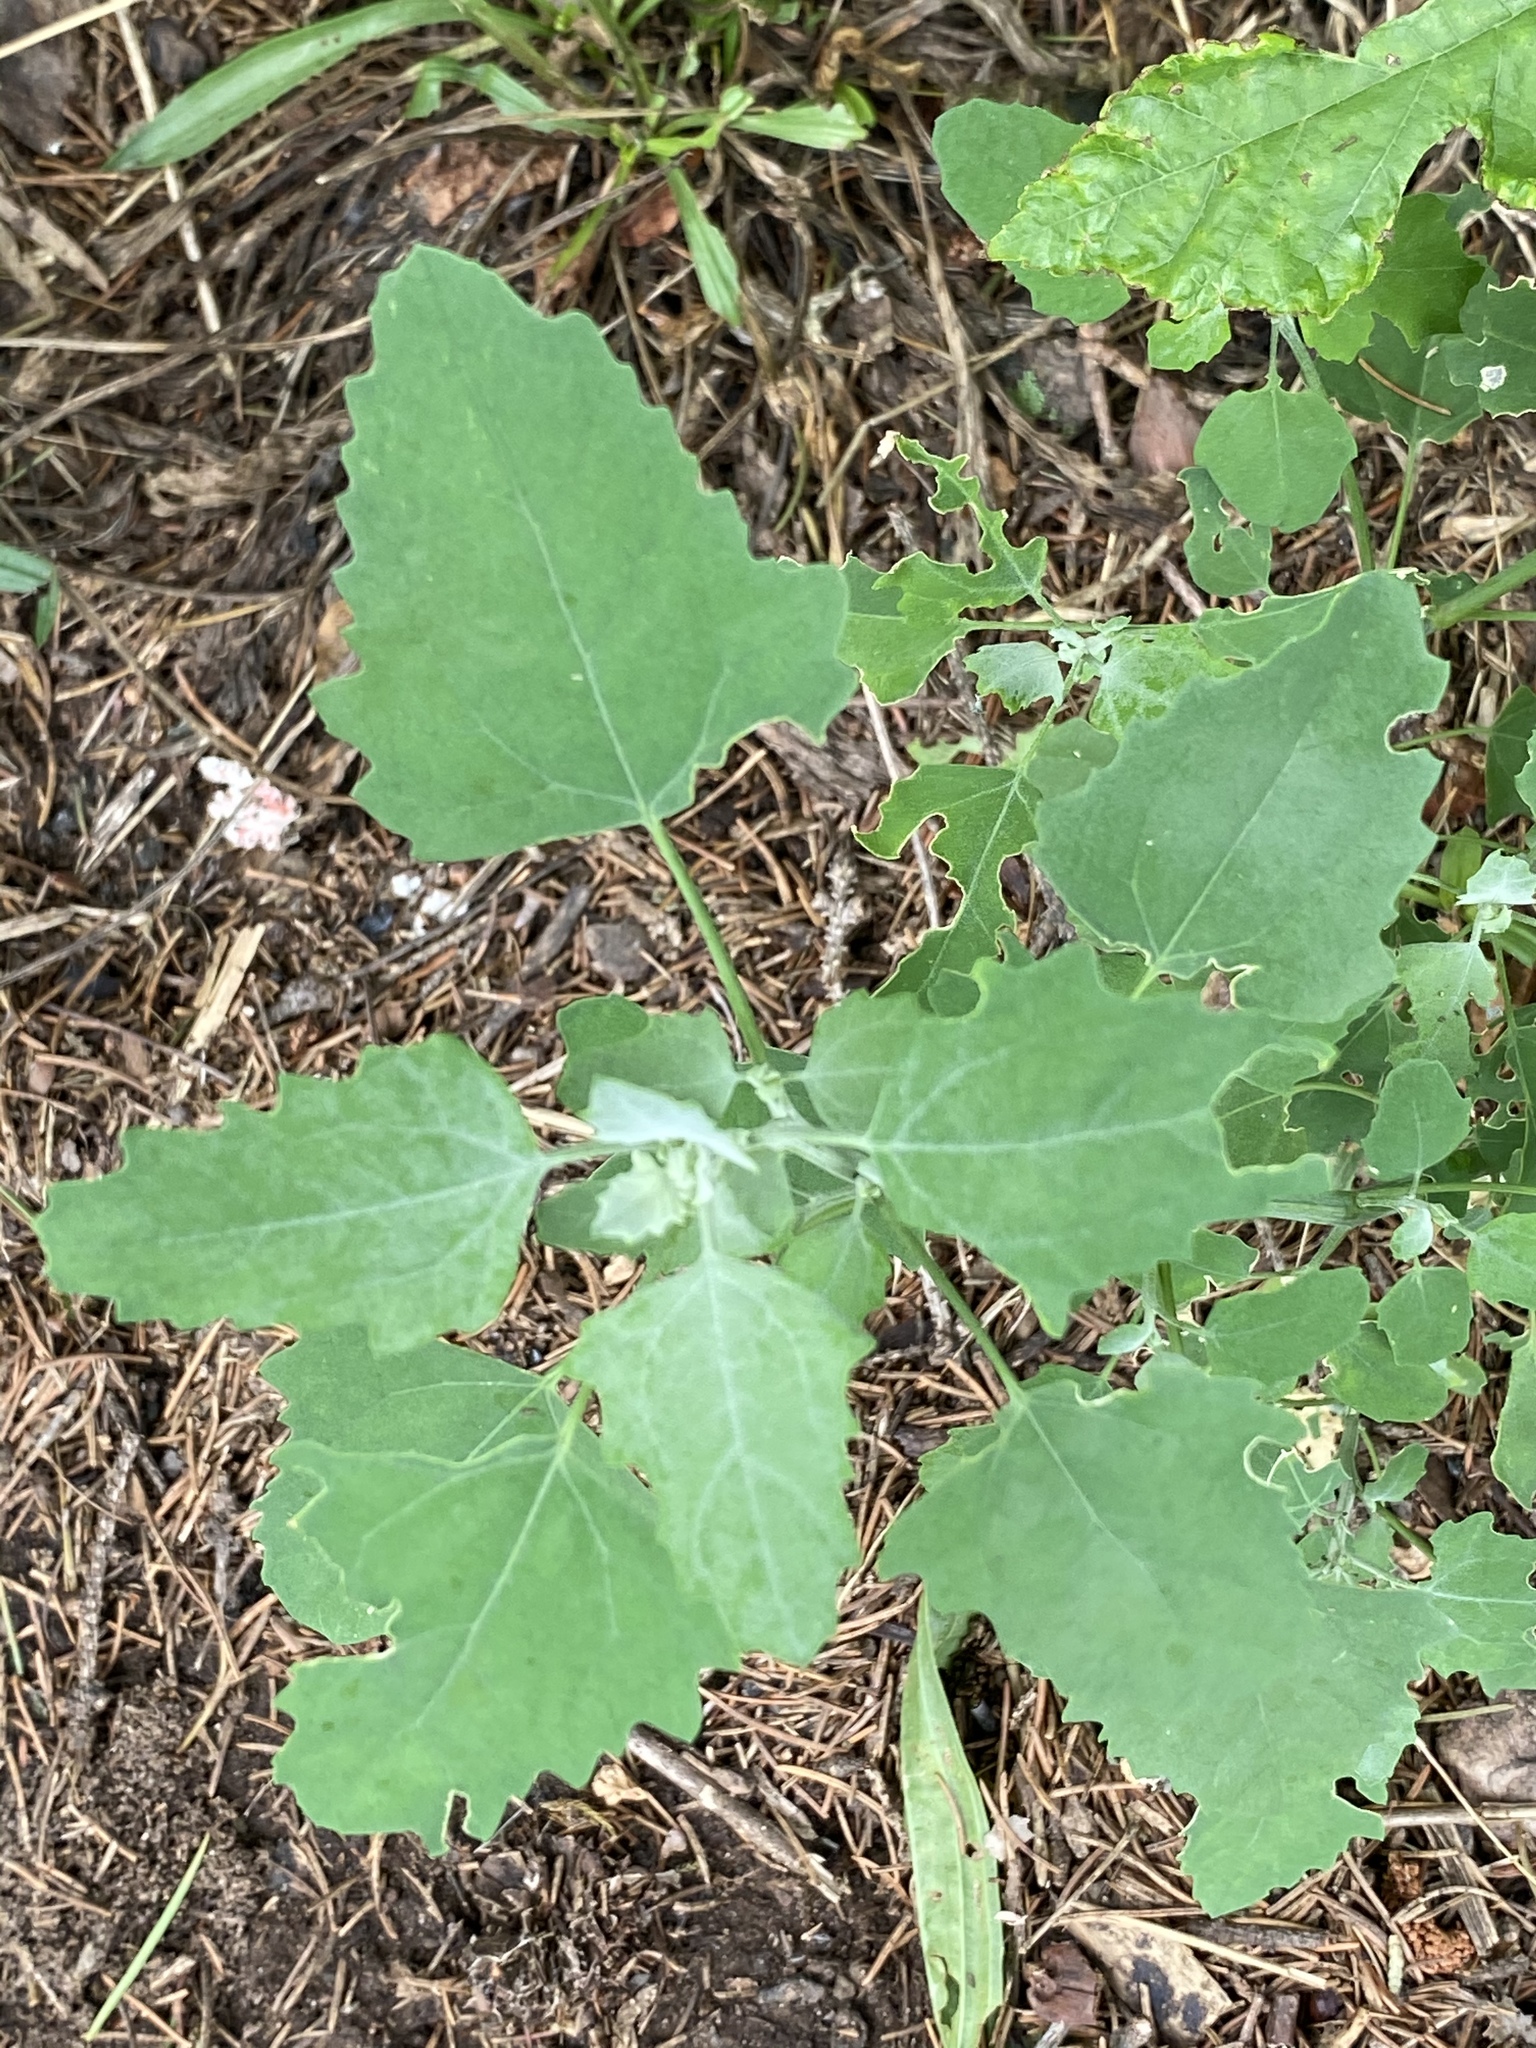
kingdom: Plantae
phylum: Tracheophyta
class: Magnoliopsida
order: Caryophyllales
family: Amaranthaceae
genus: Chenopodium
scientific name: Chenopodium album
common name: Fat-hen
